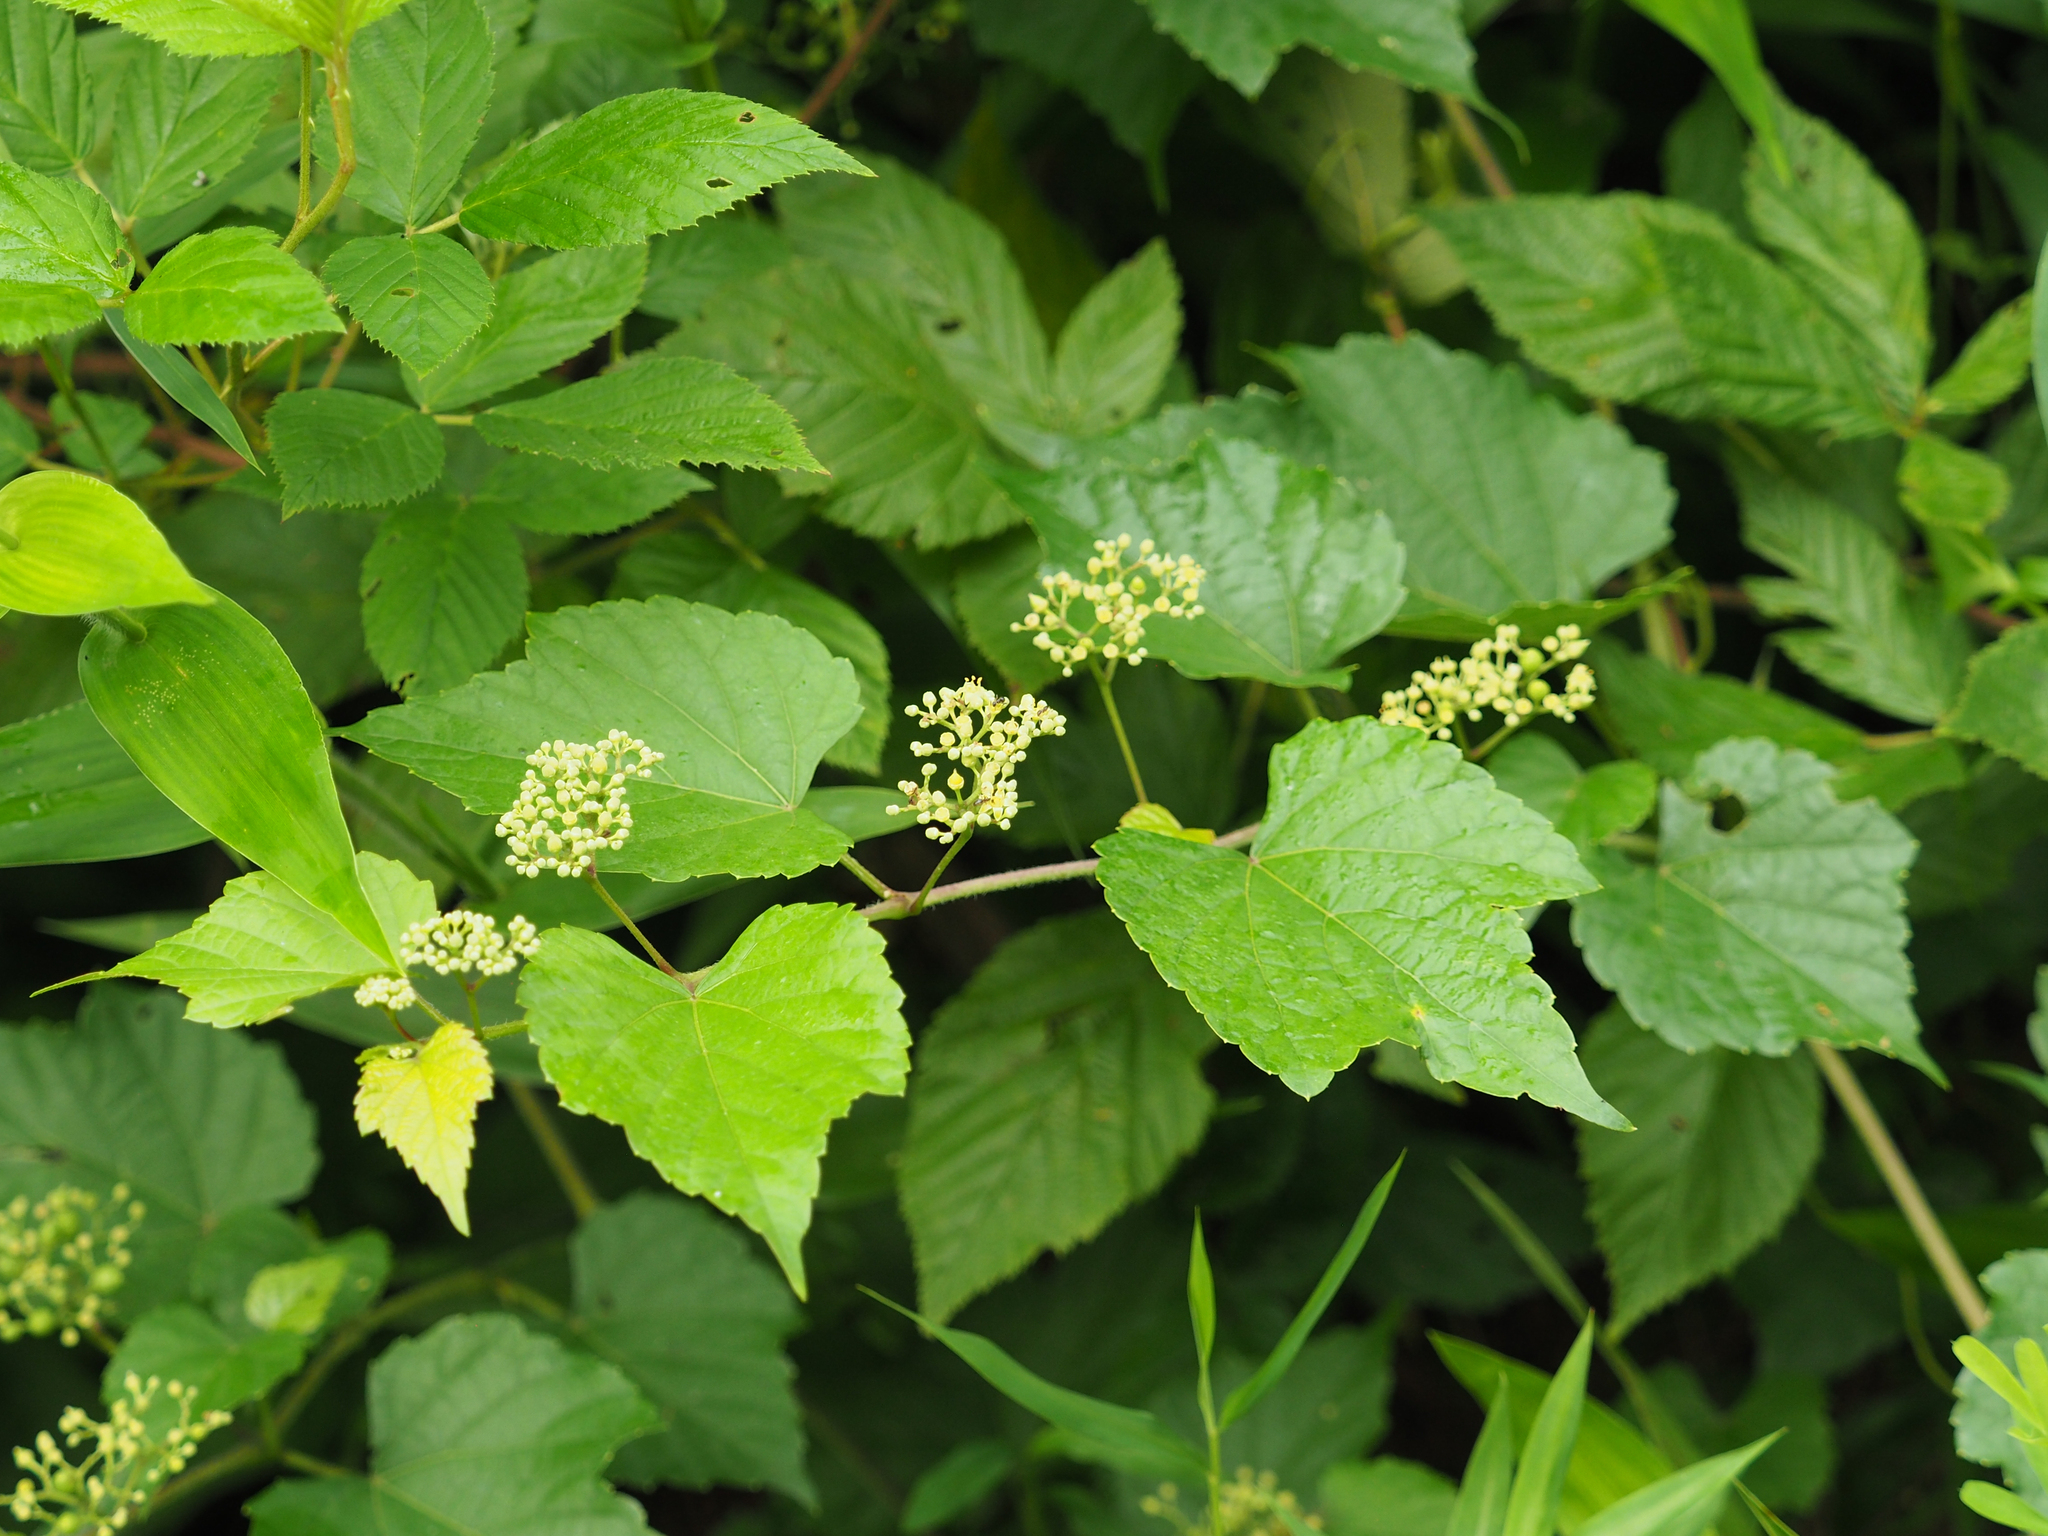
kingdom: Plantae
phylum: Tracheophyta
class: Magnoliopsida
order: Vitales
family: Vitaceae
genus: Ampelopsis
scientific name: Ampelopsis glandulosa
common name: Amur peppervine
